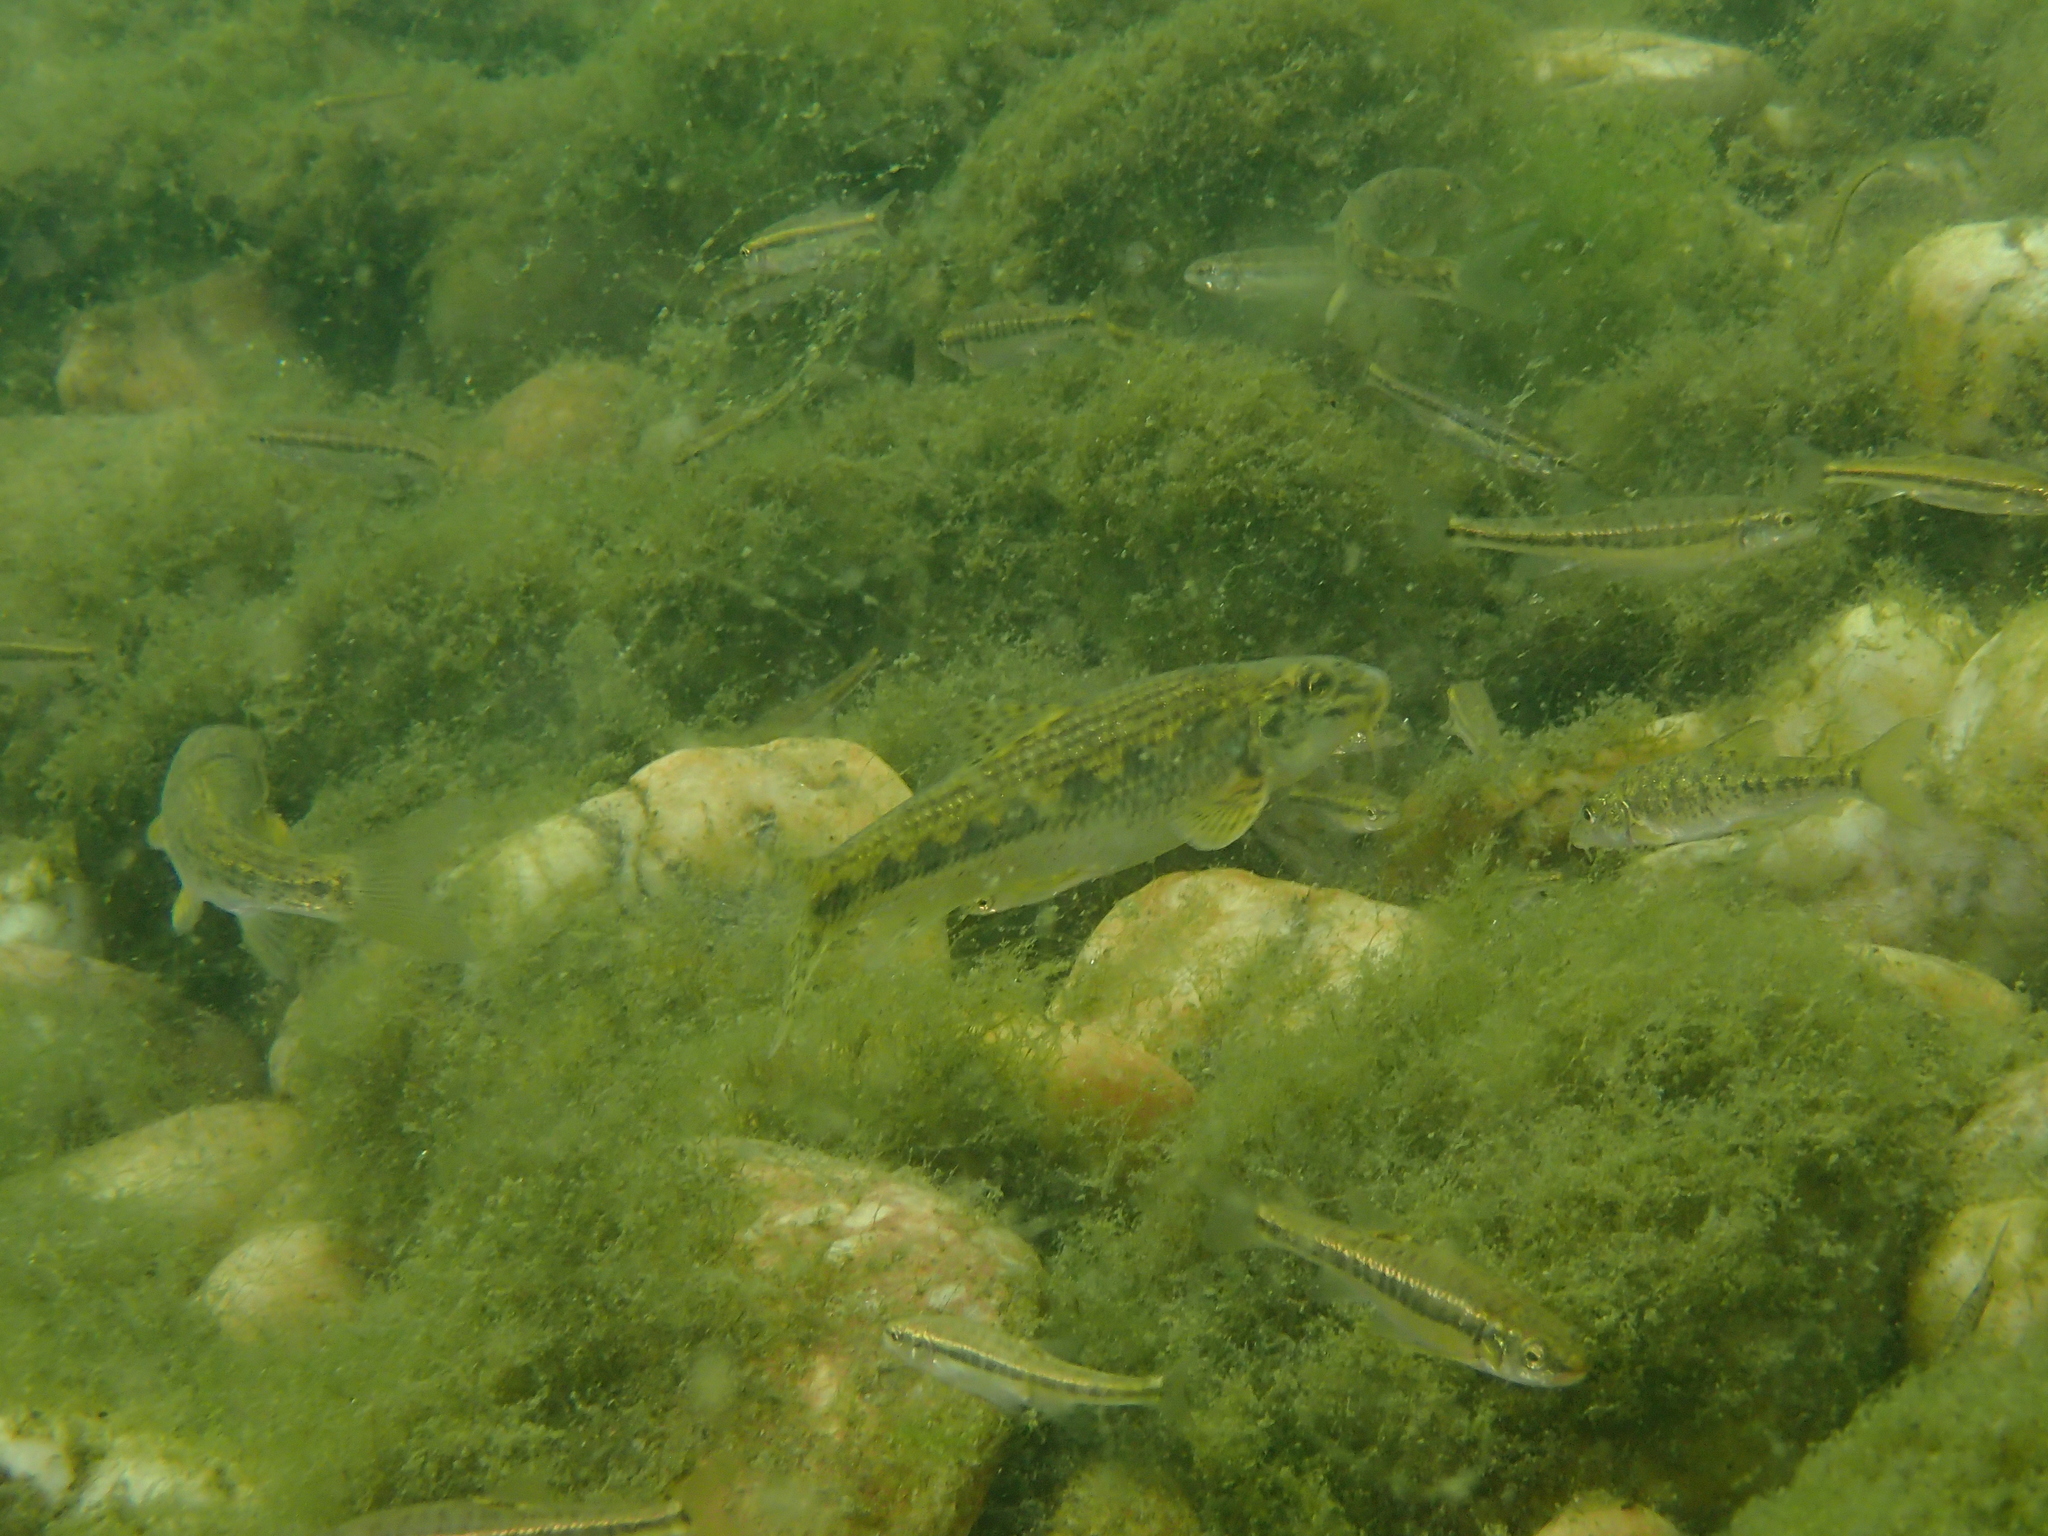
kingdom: Animalia
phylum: Chordata
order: Cypriniformes
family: Cyprinidae
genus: Gobio
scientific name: Gobio gobio
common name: Gudgeon
